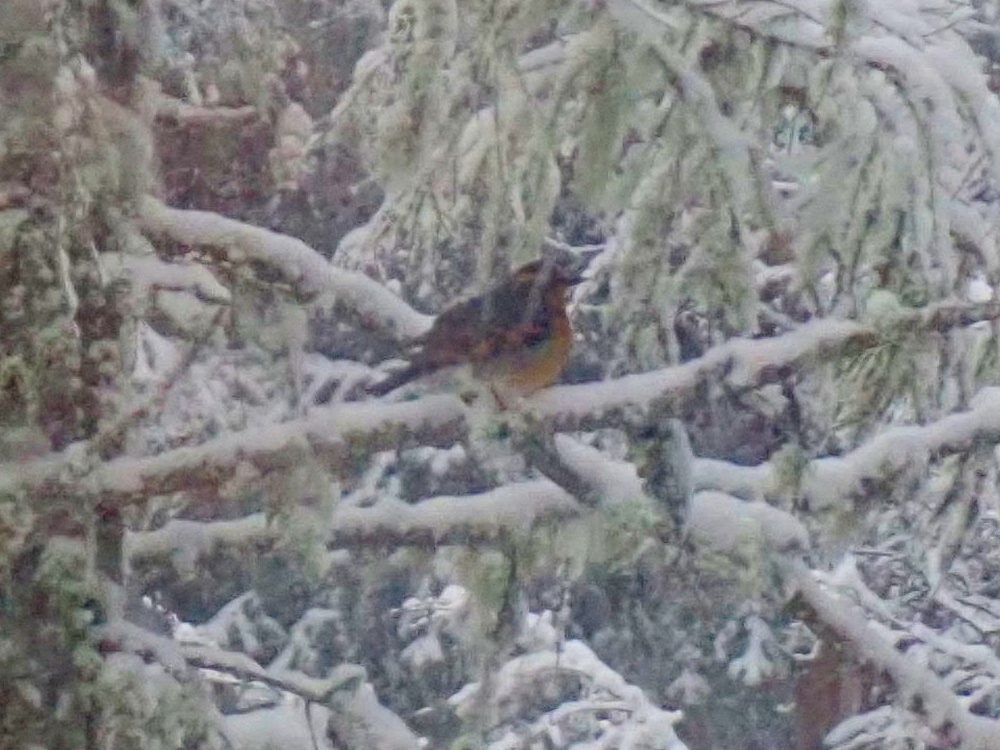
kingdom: Animalia
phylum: Chordata
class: Aves
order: Passeriformes
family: Turdidae
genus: Ixoreus
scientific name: Ixoreus naevius
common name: Varied thrush
